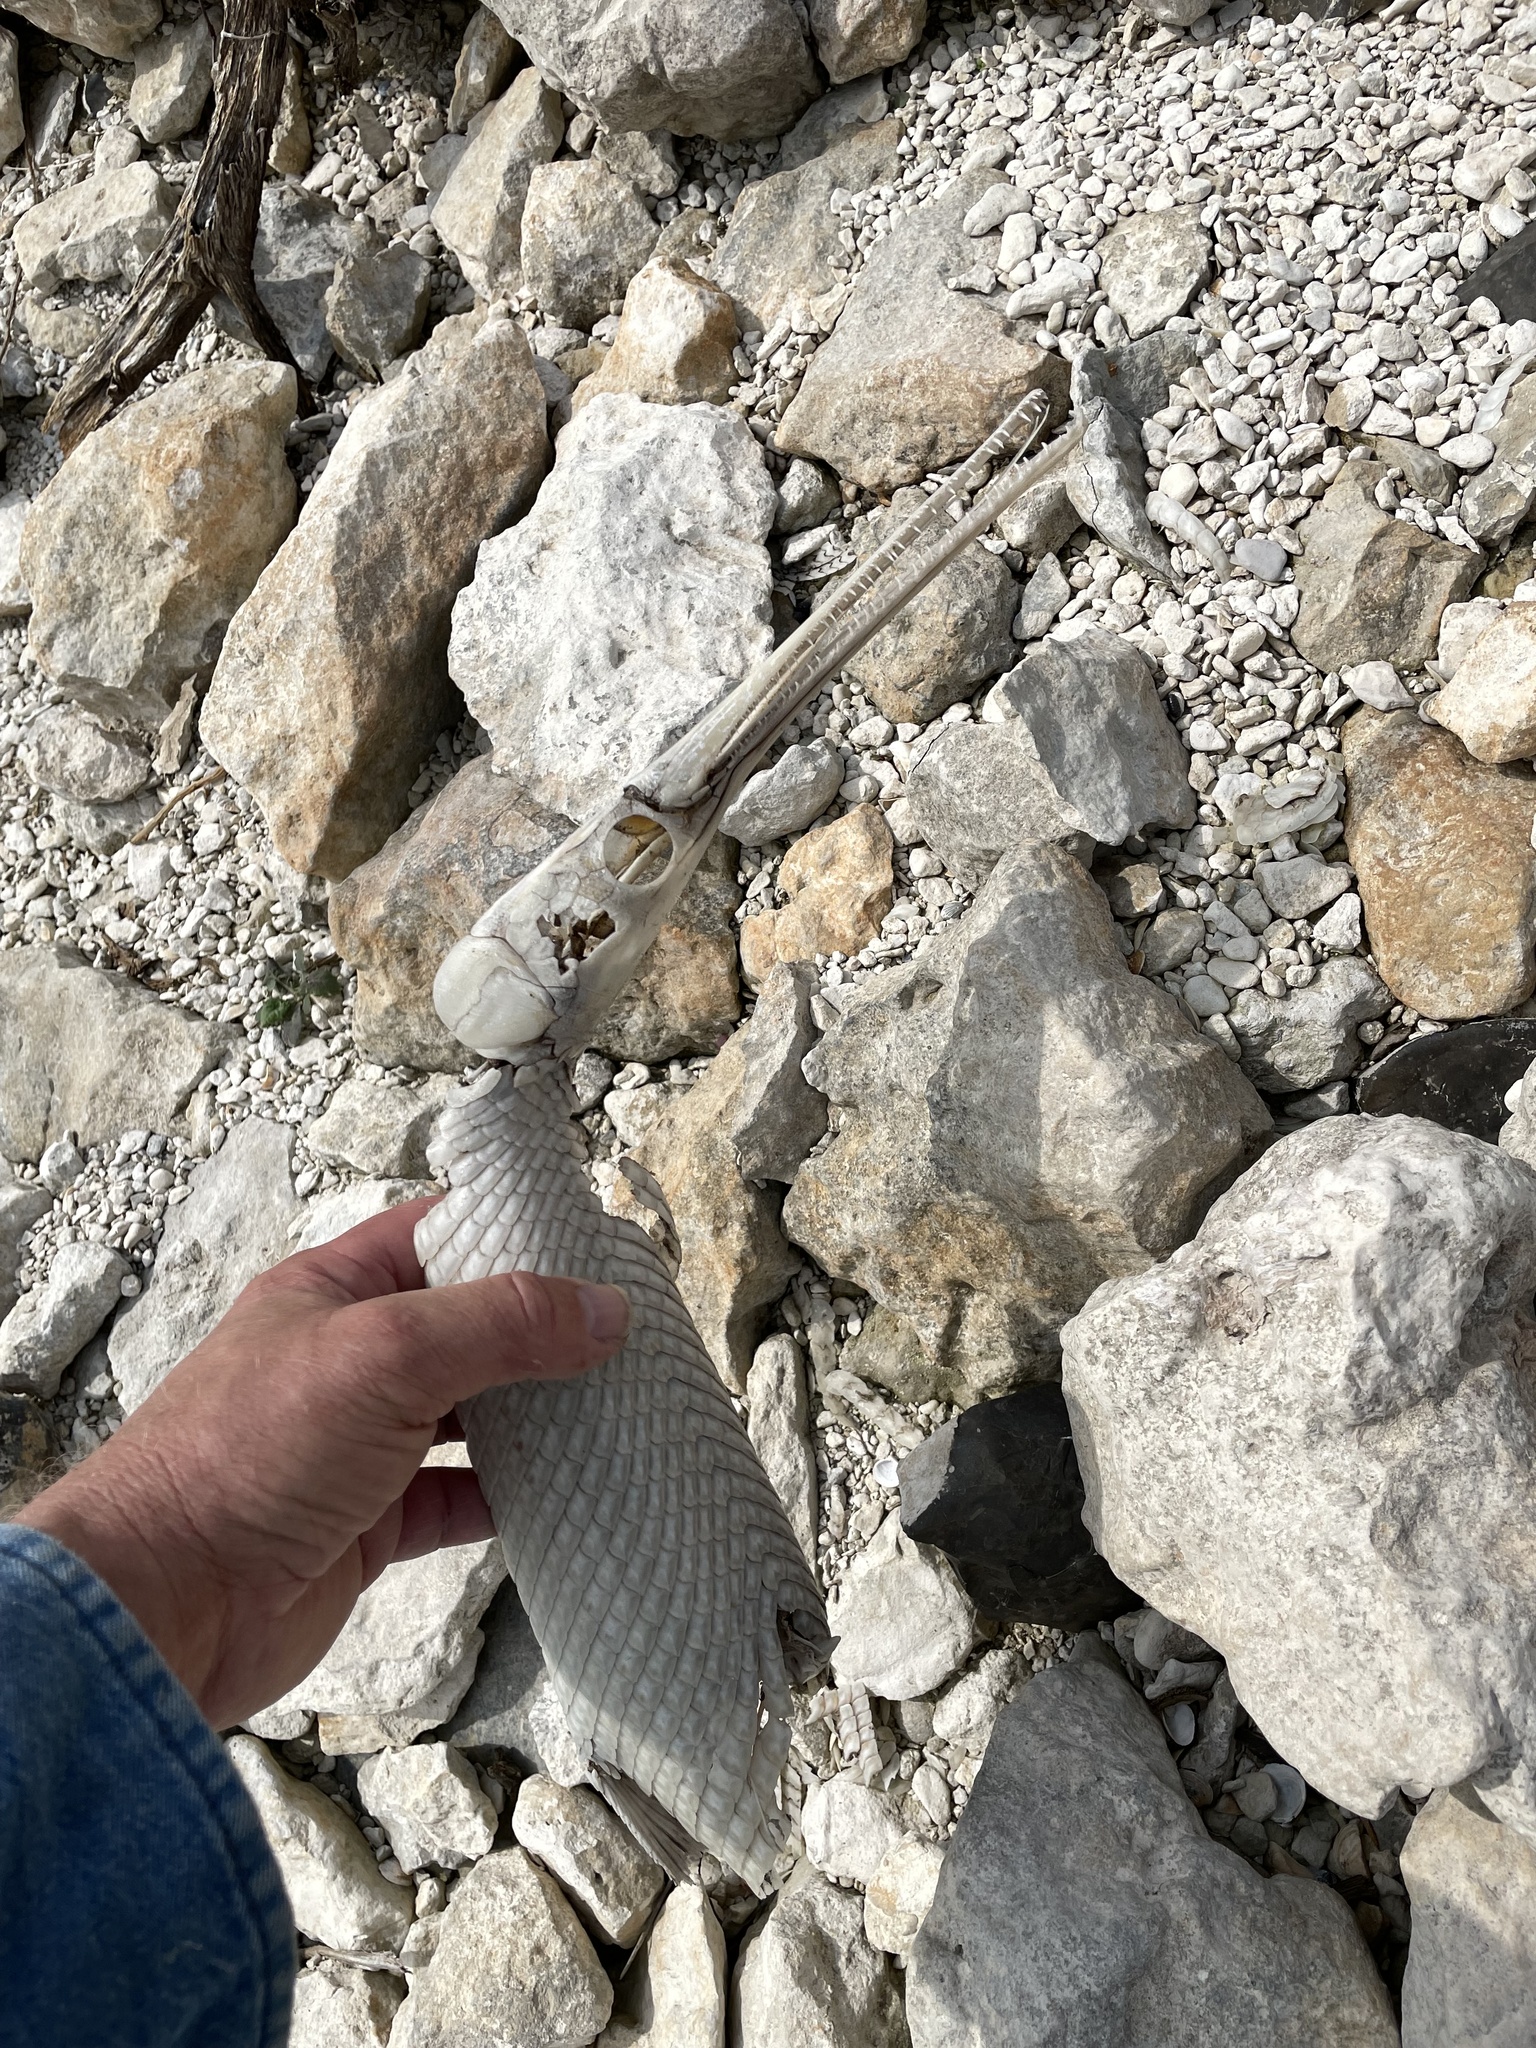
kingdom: Animalia
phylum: Chordata
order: Lepisosteiformes
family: Lepisosteidae
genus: Lepisosteus
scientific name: Lepisosteus osseus
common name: Longnose gar
